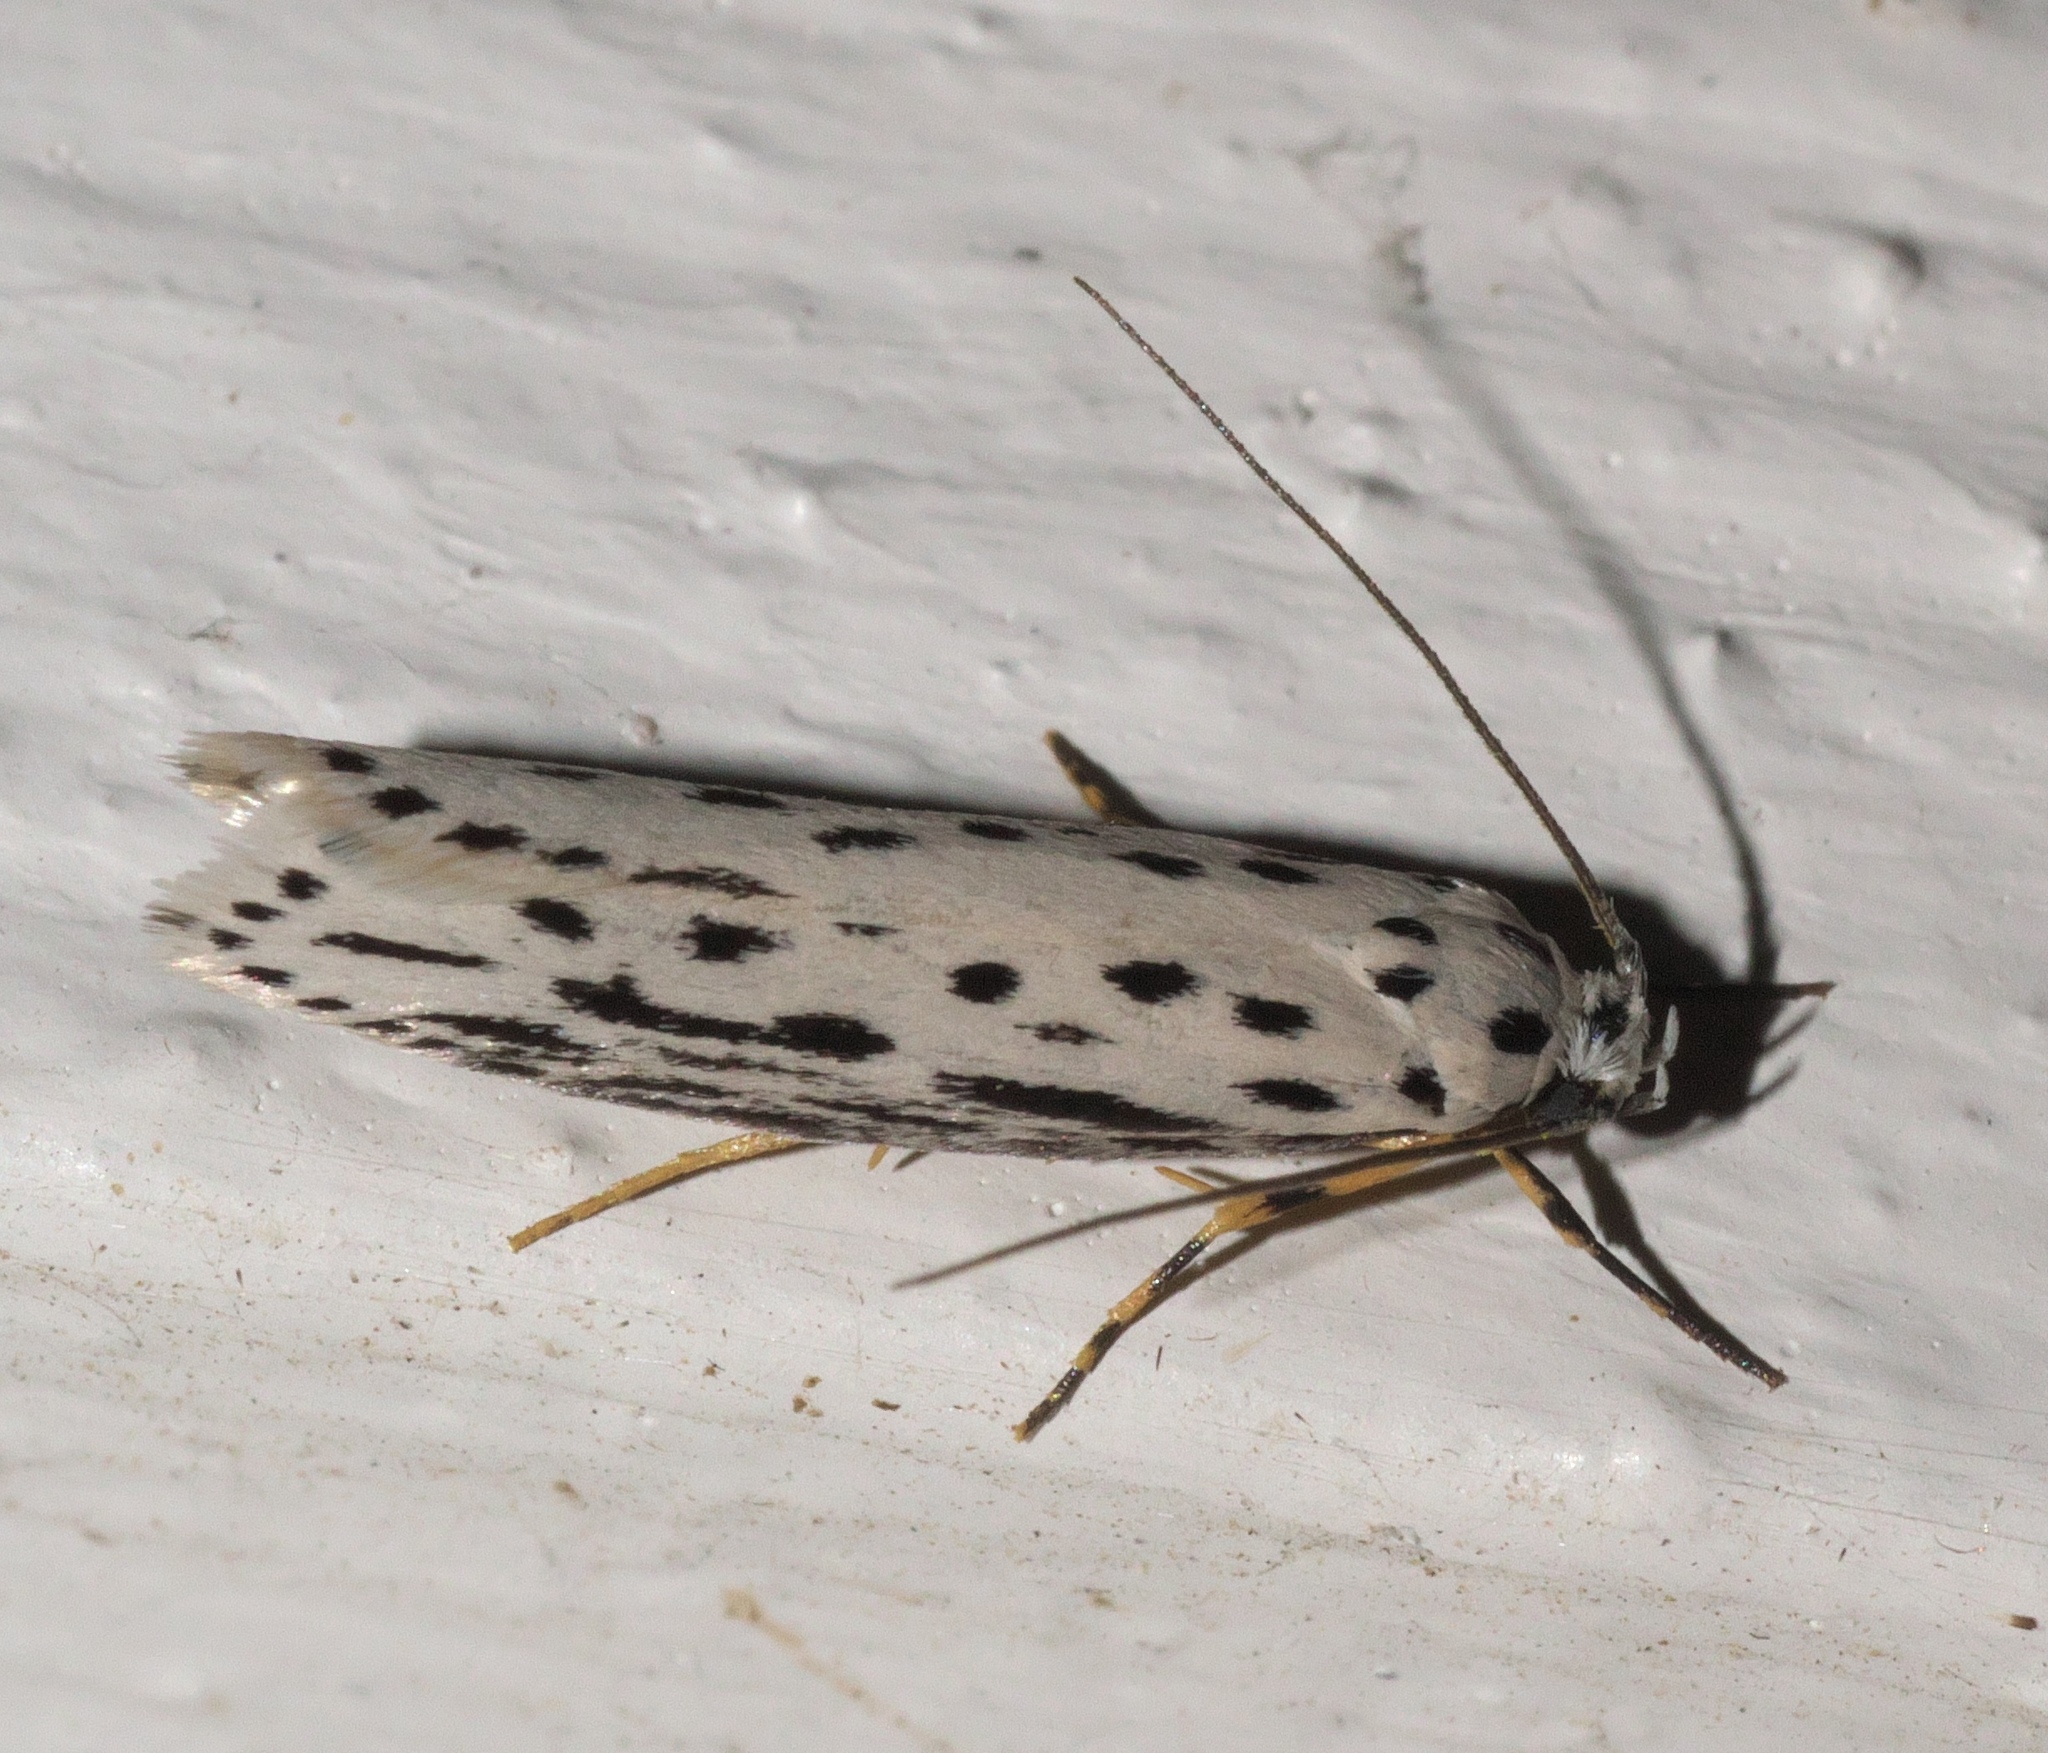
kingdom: Animalia
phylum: Arthropoda
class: Insecta
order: Lepidoptera
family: Ethmiidae
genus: Ethmia
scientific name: Ethmia zelleriella
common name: Zeller's ethmia
